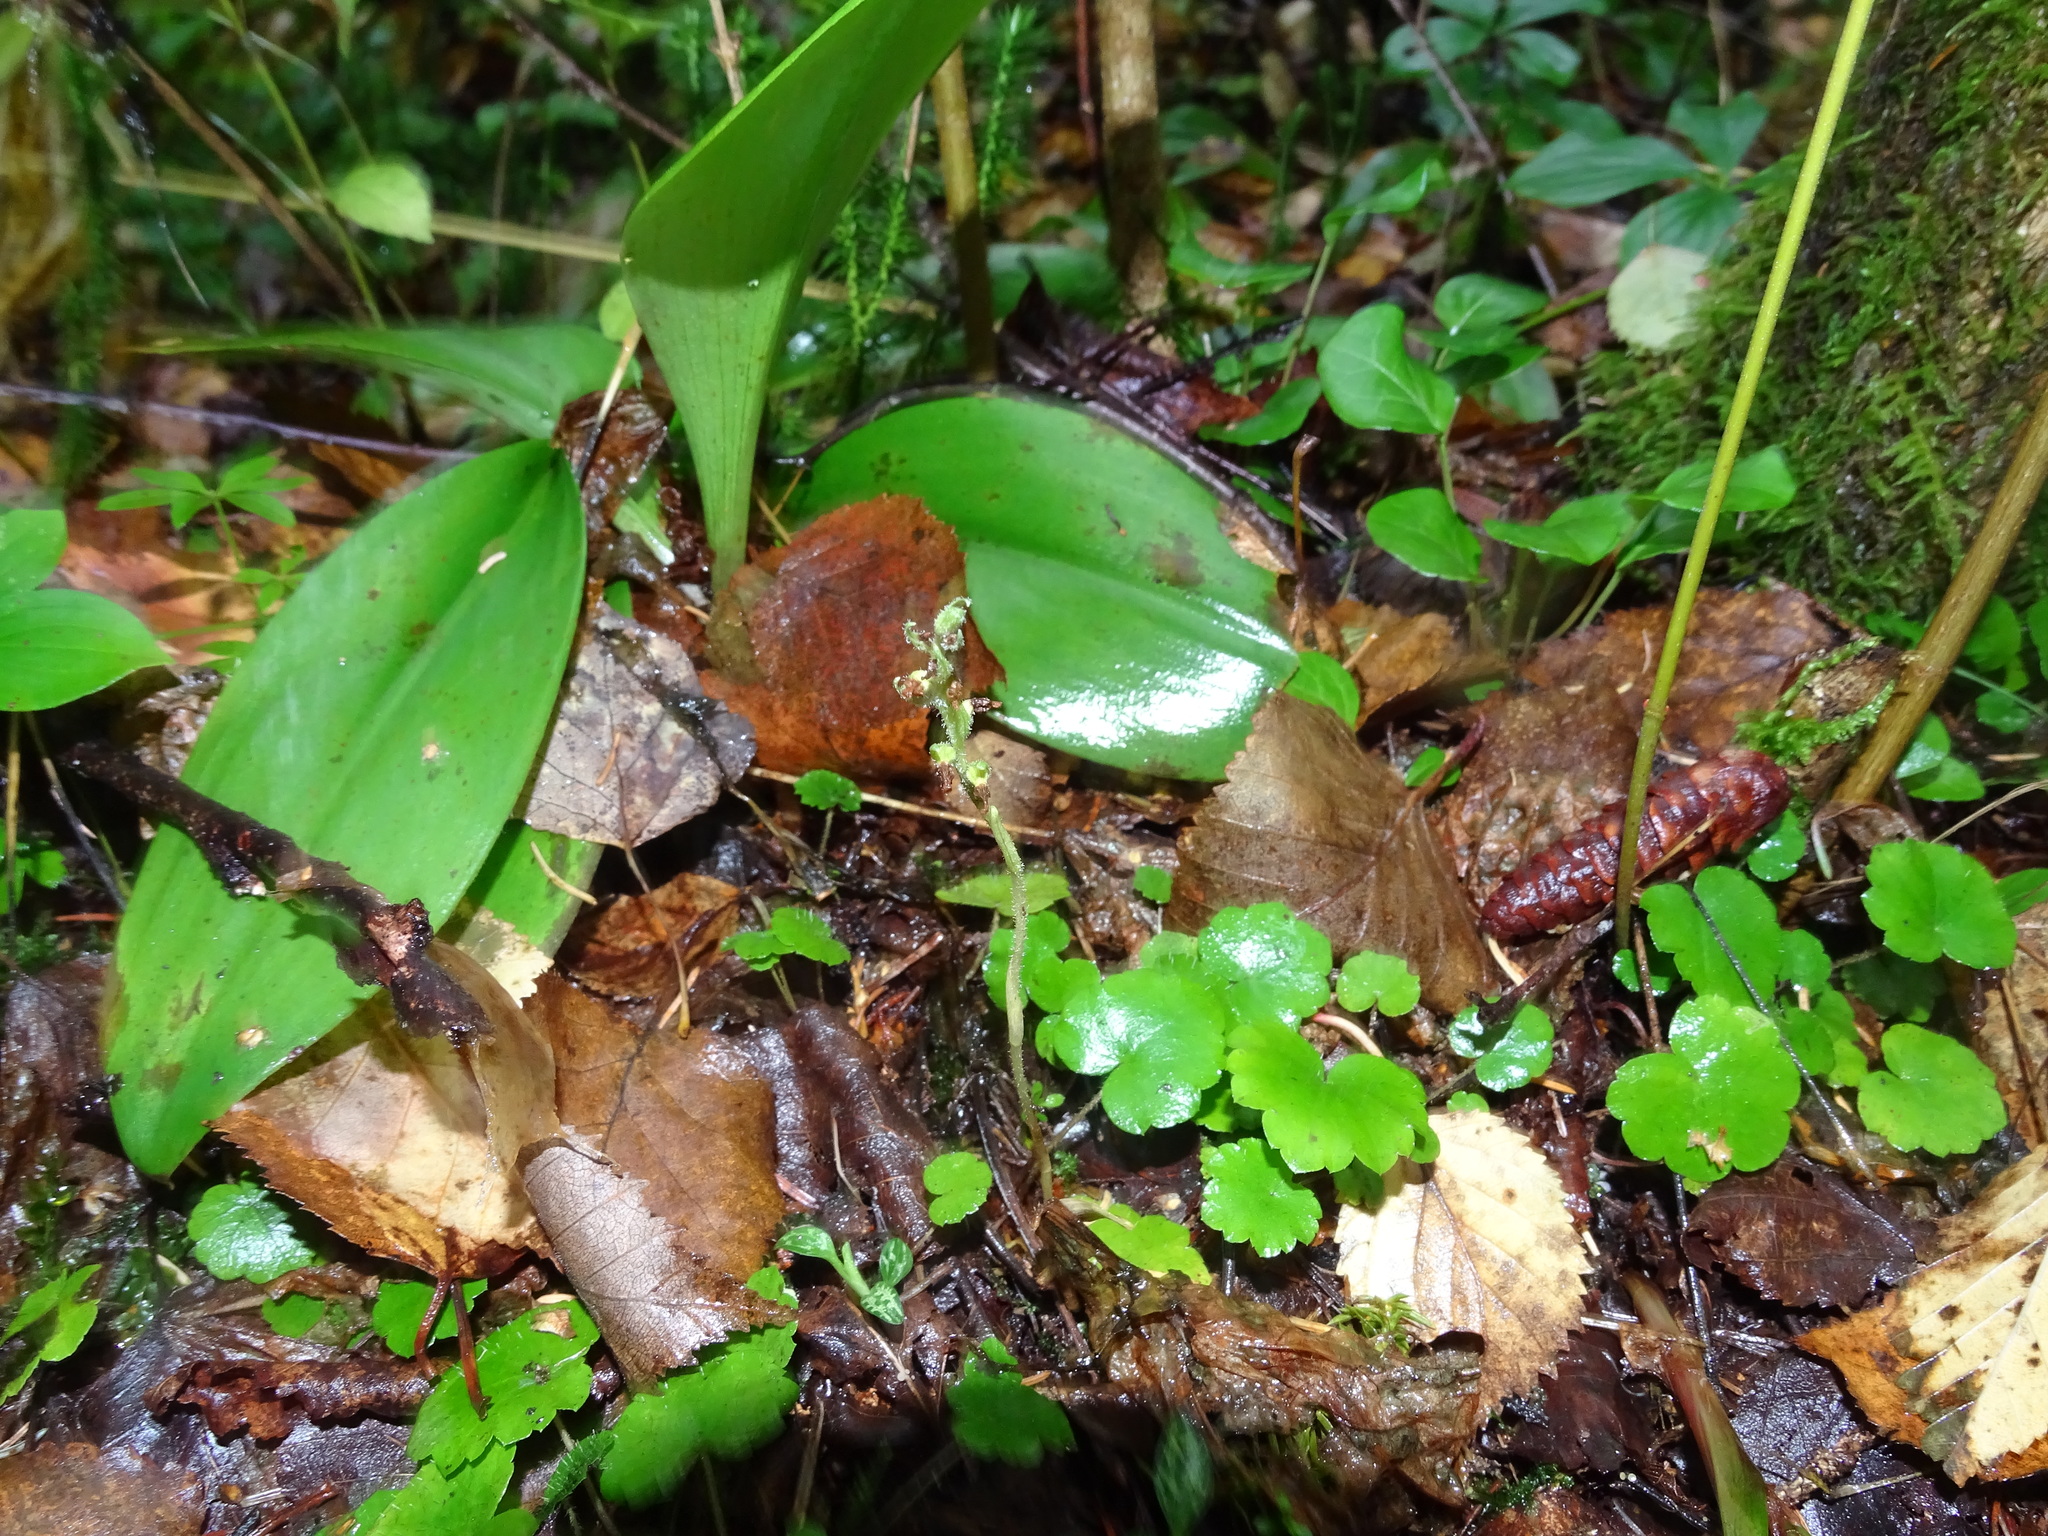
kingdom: Plantae
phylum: Tracheophyta
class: Liliopsida
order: Asparagales
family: Orchidaceae
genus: Goodyera
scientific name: Goodyera repens
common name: Creeping lady's-tresses
